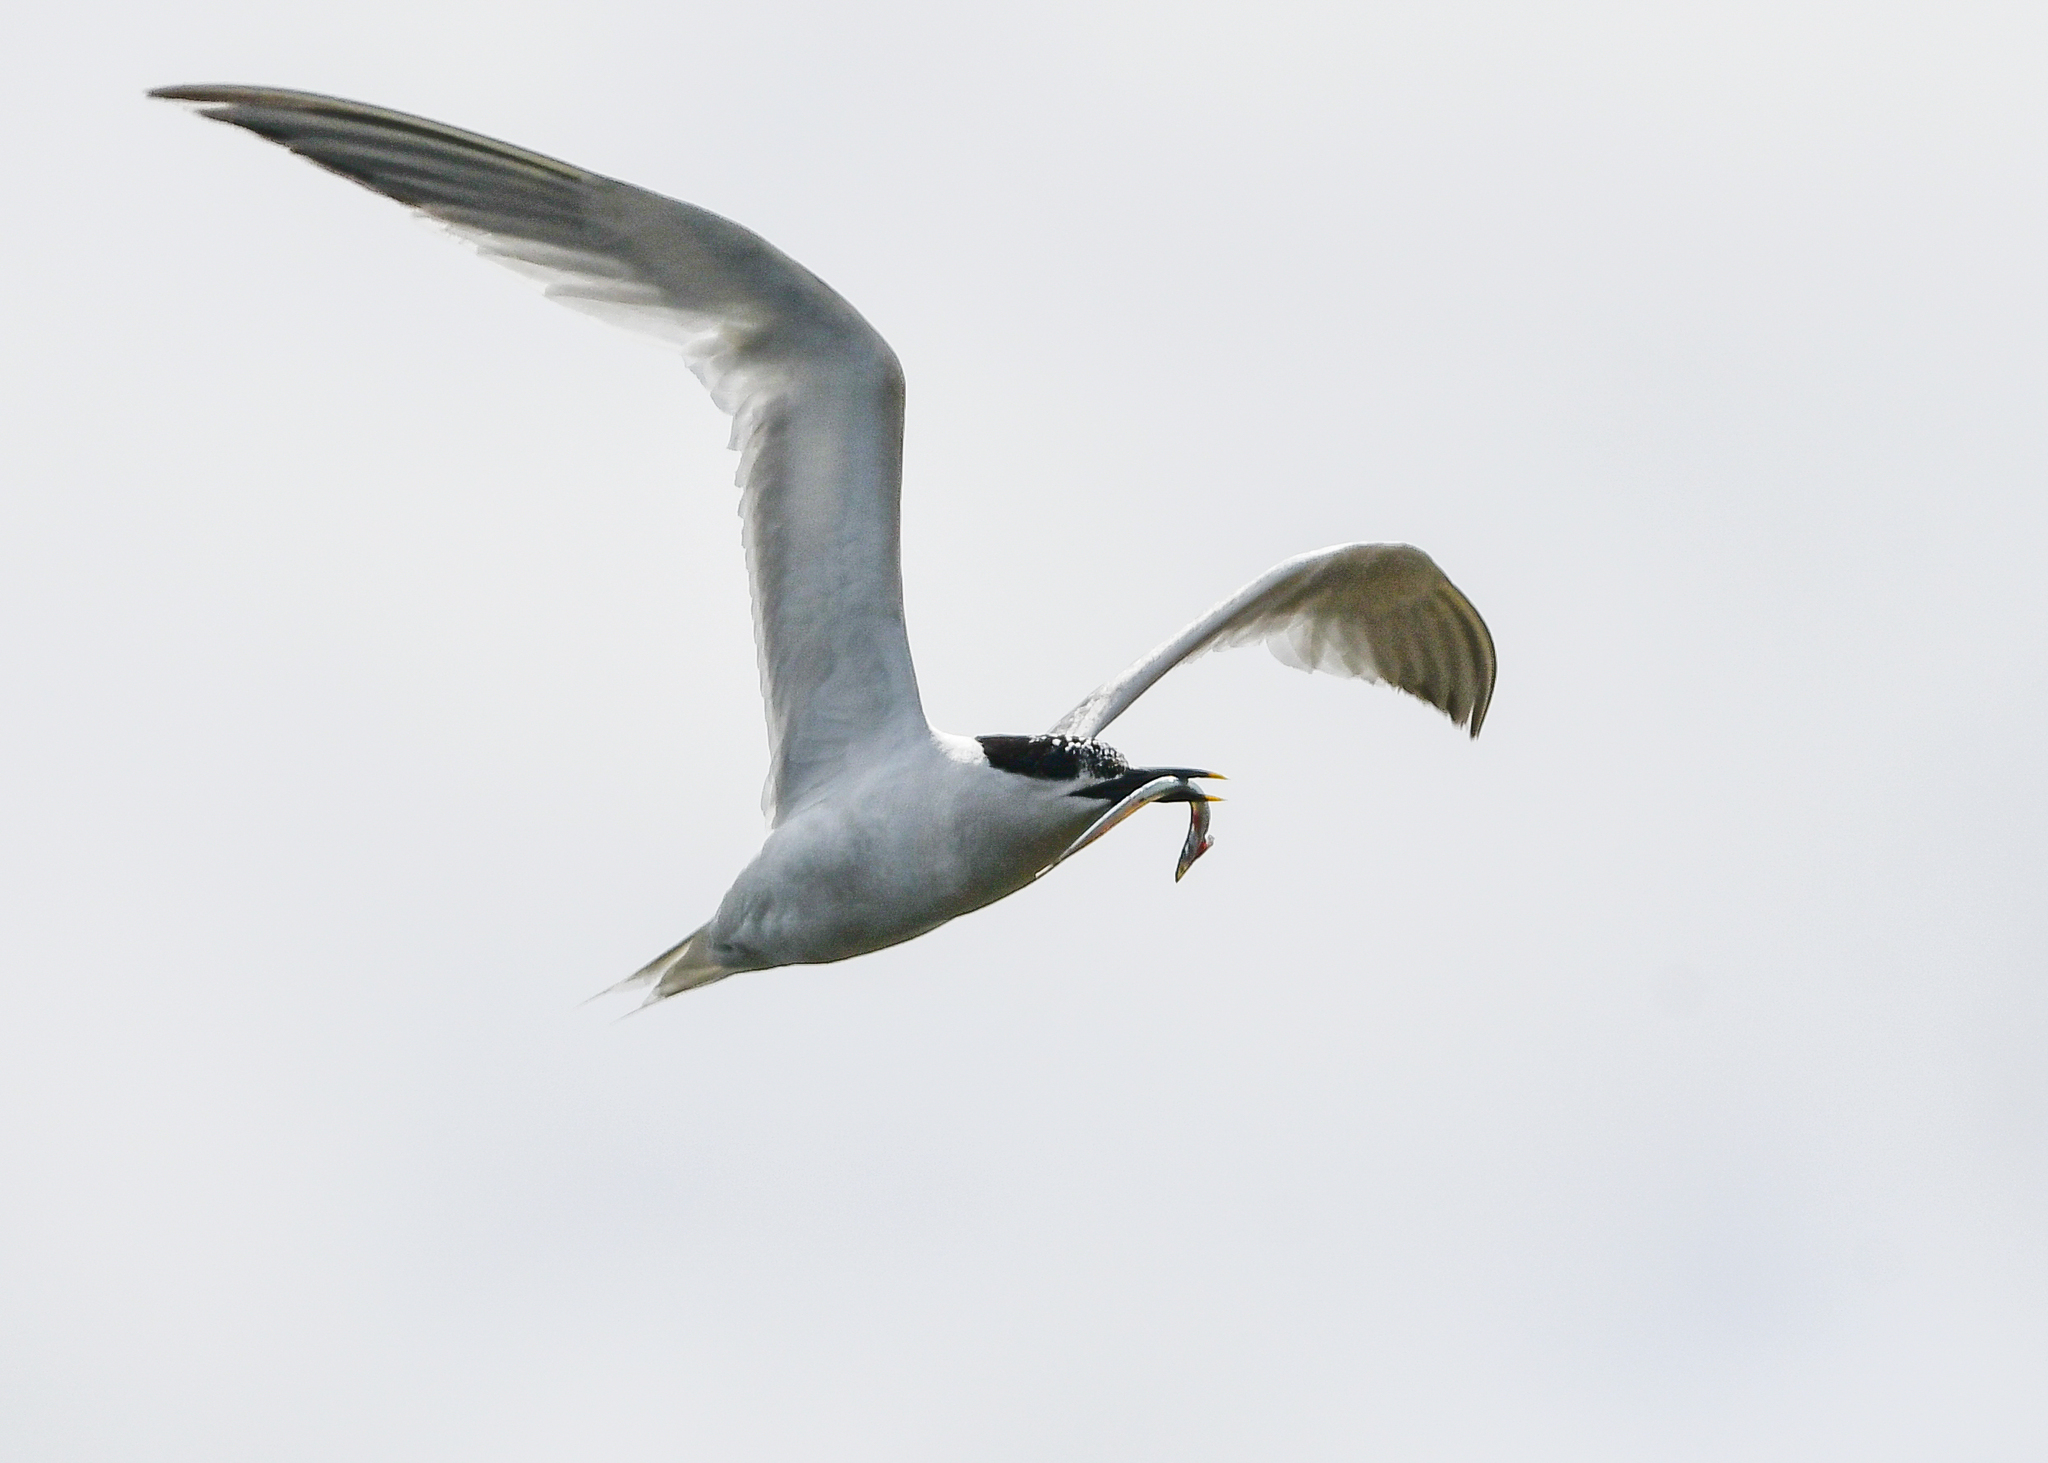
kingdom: Animalia
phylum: Chordata
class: Aves
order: Charadriiformes
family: Laridae
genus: Thalasseus
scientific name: Thalasseus sandvicensis
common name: Sandwich tern
